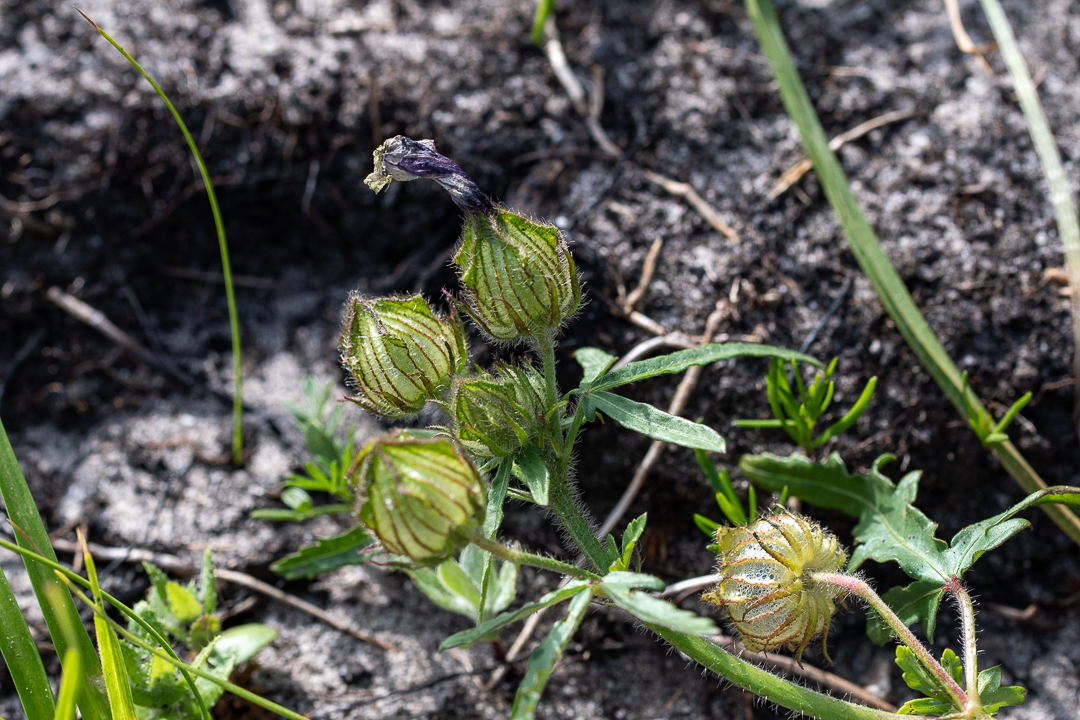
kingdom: Plantae
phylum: Tracheophyta
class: Magnoliopsida
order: Malvales
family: Malvaceae
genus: Hibiscus
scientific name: Hibiscus trionum
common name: Bladder ketmia
